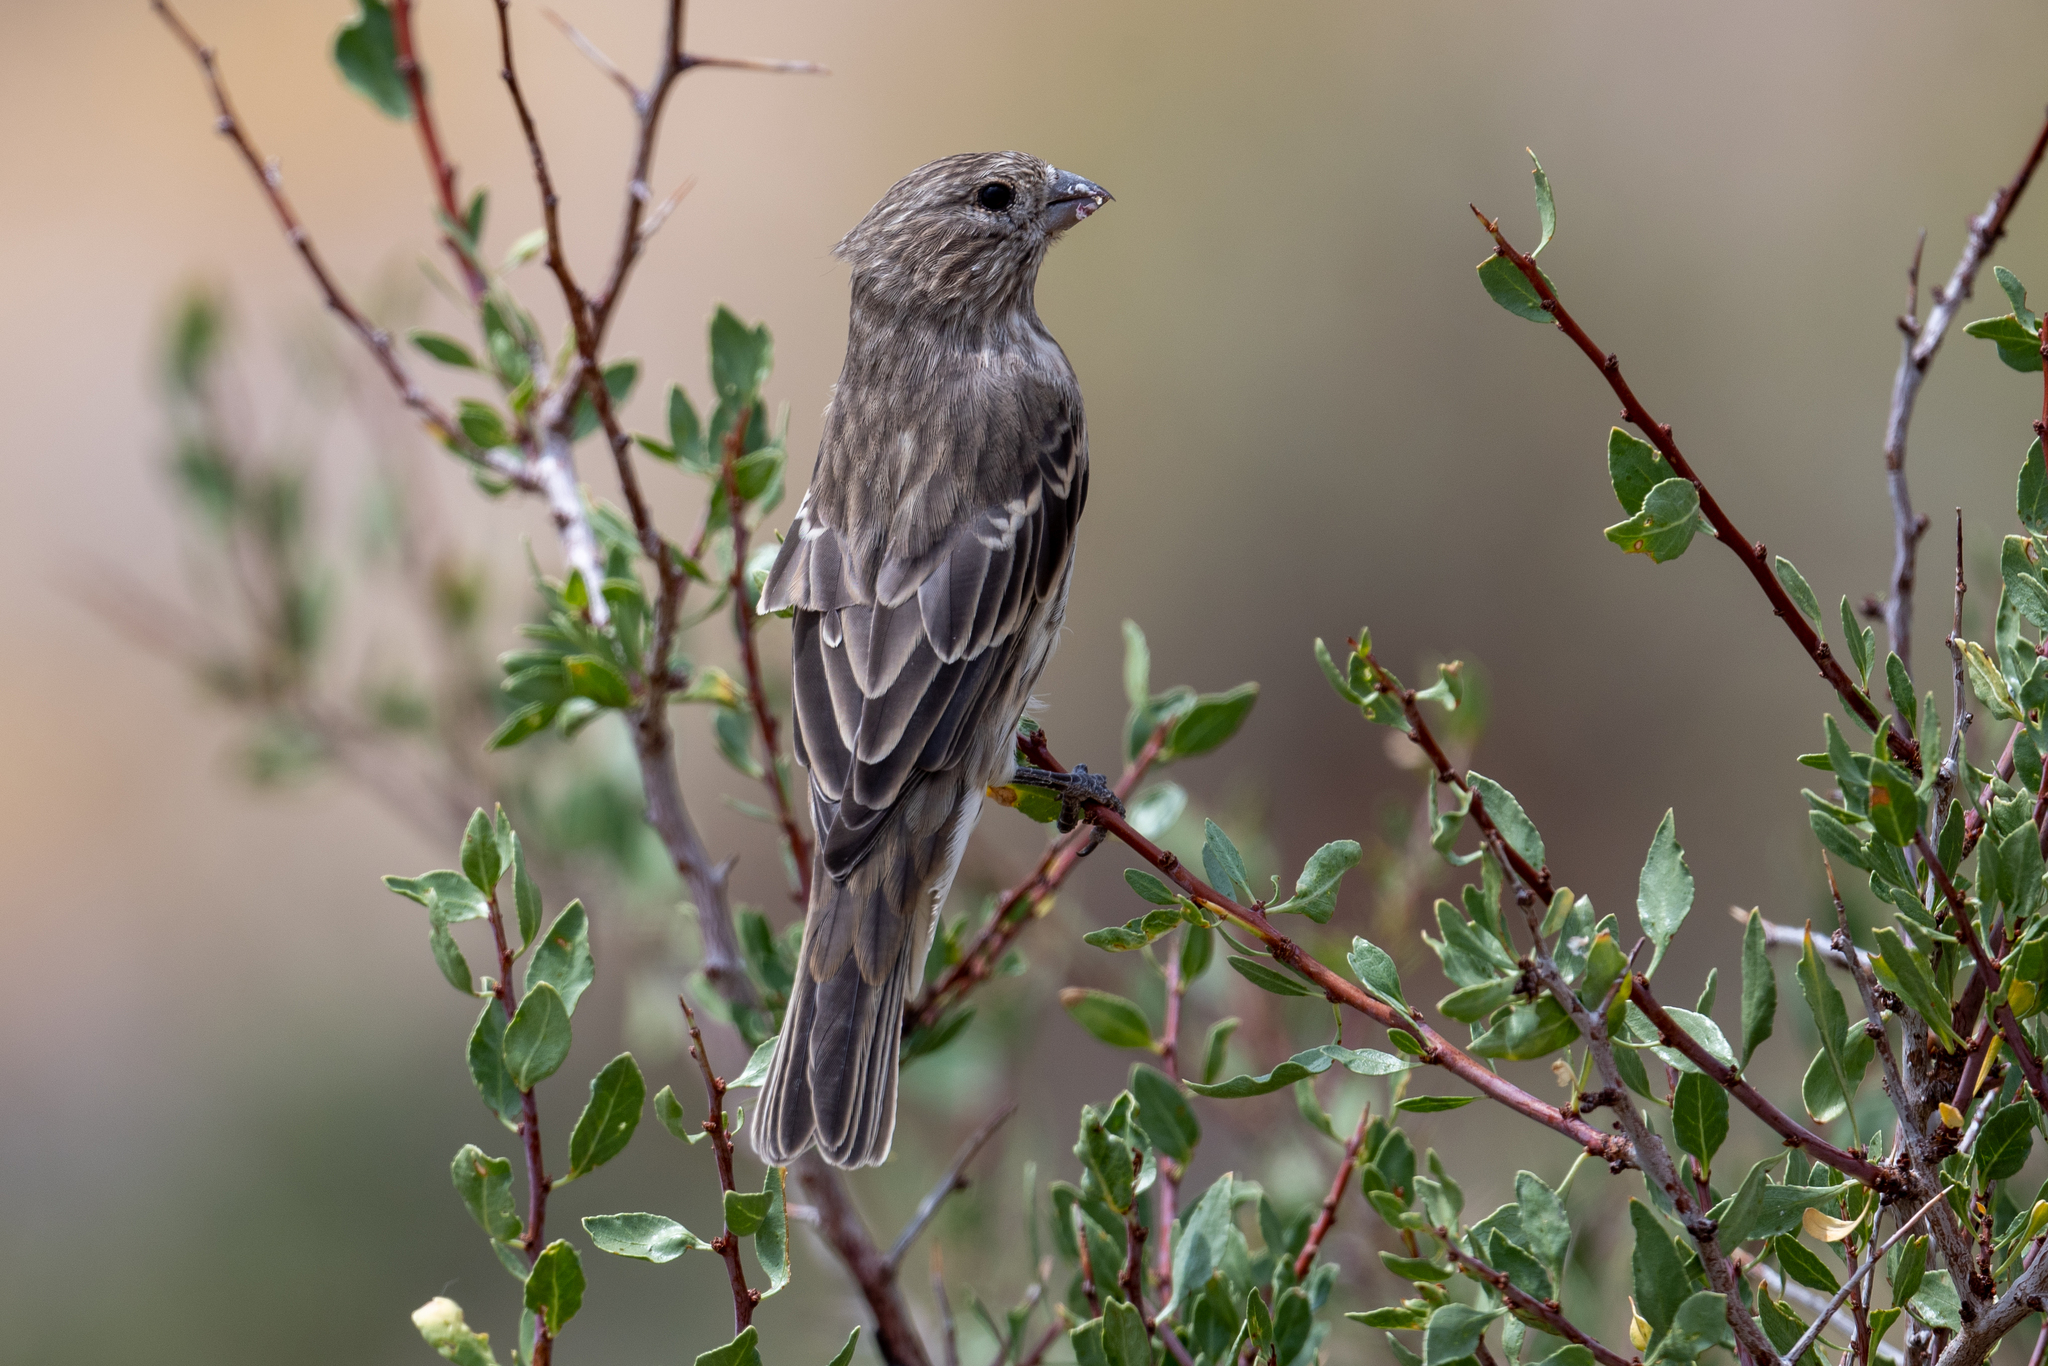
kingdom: Animalia
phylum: Chordata
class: Aves
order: Passeriformes
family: Fringillidae
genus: Haemorhous
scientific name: Haemorhous cassinii
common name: Cassin's finch
